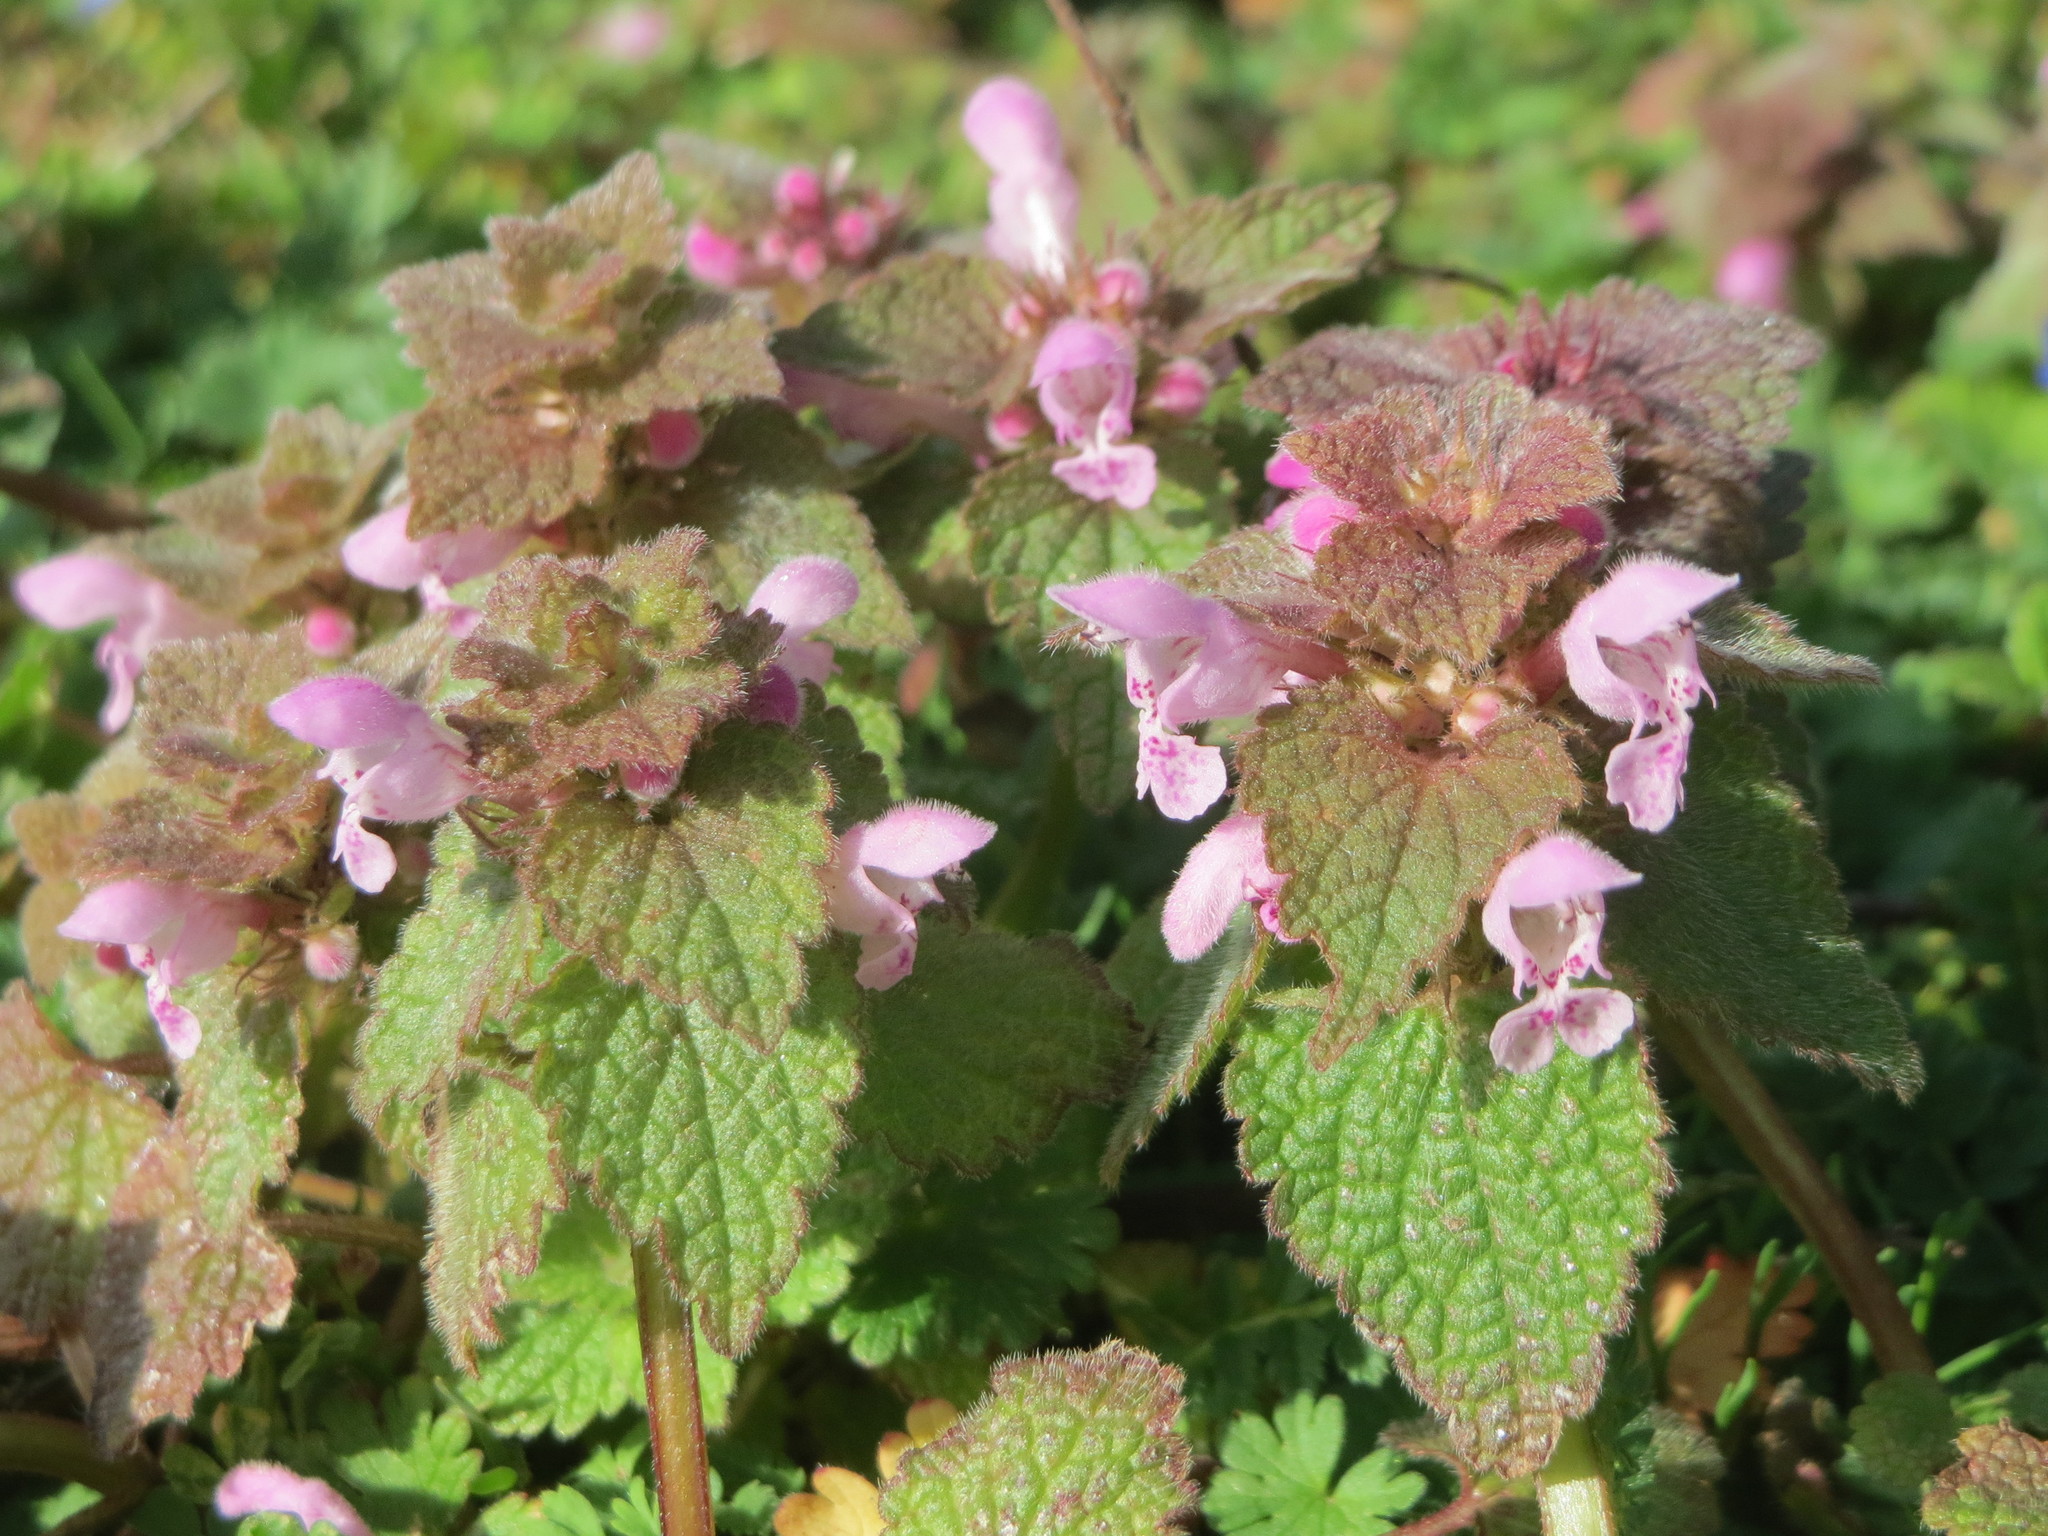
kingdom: Plantae
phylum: Tracheophyta
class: Magnoliopsida
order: Lamiales
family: Lamiaceae
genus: Lamium
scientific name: Lamium purpureum
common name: Red dead-nettle
